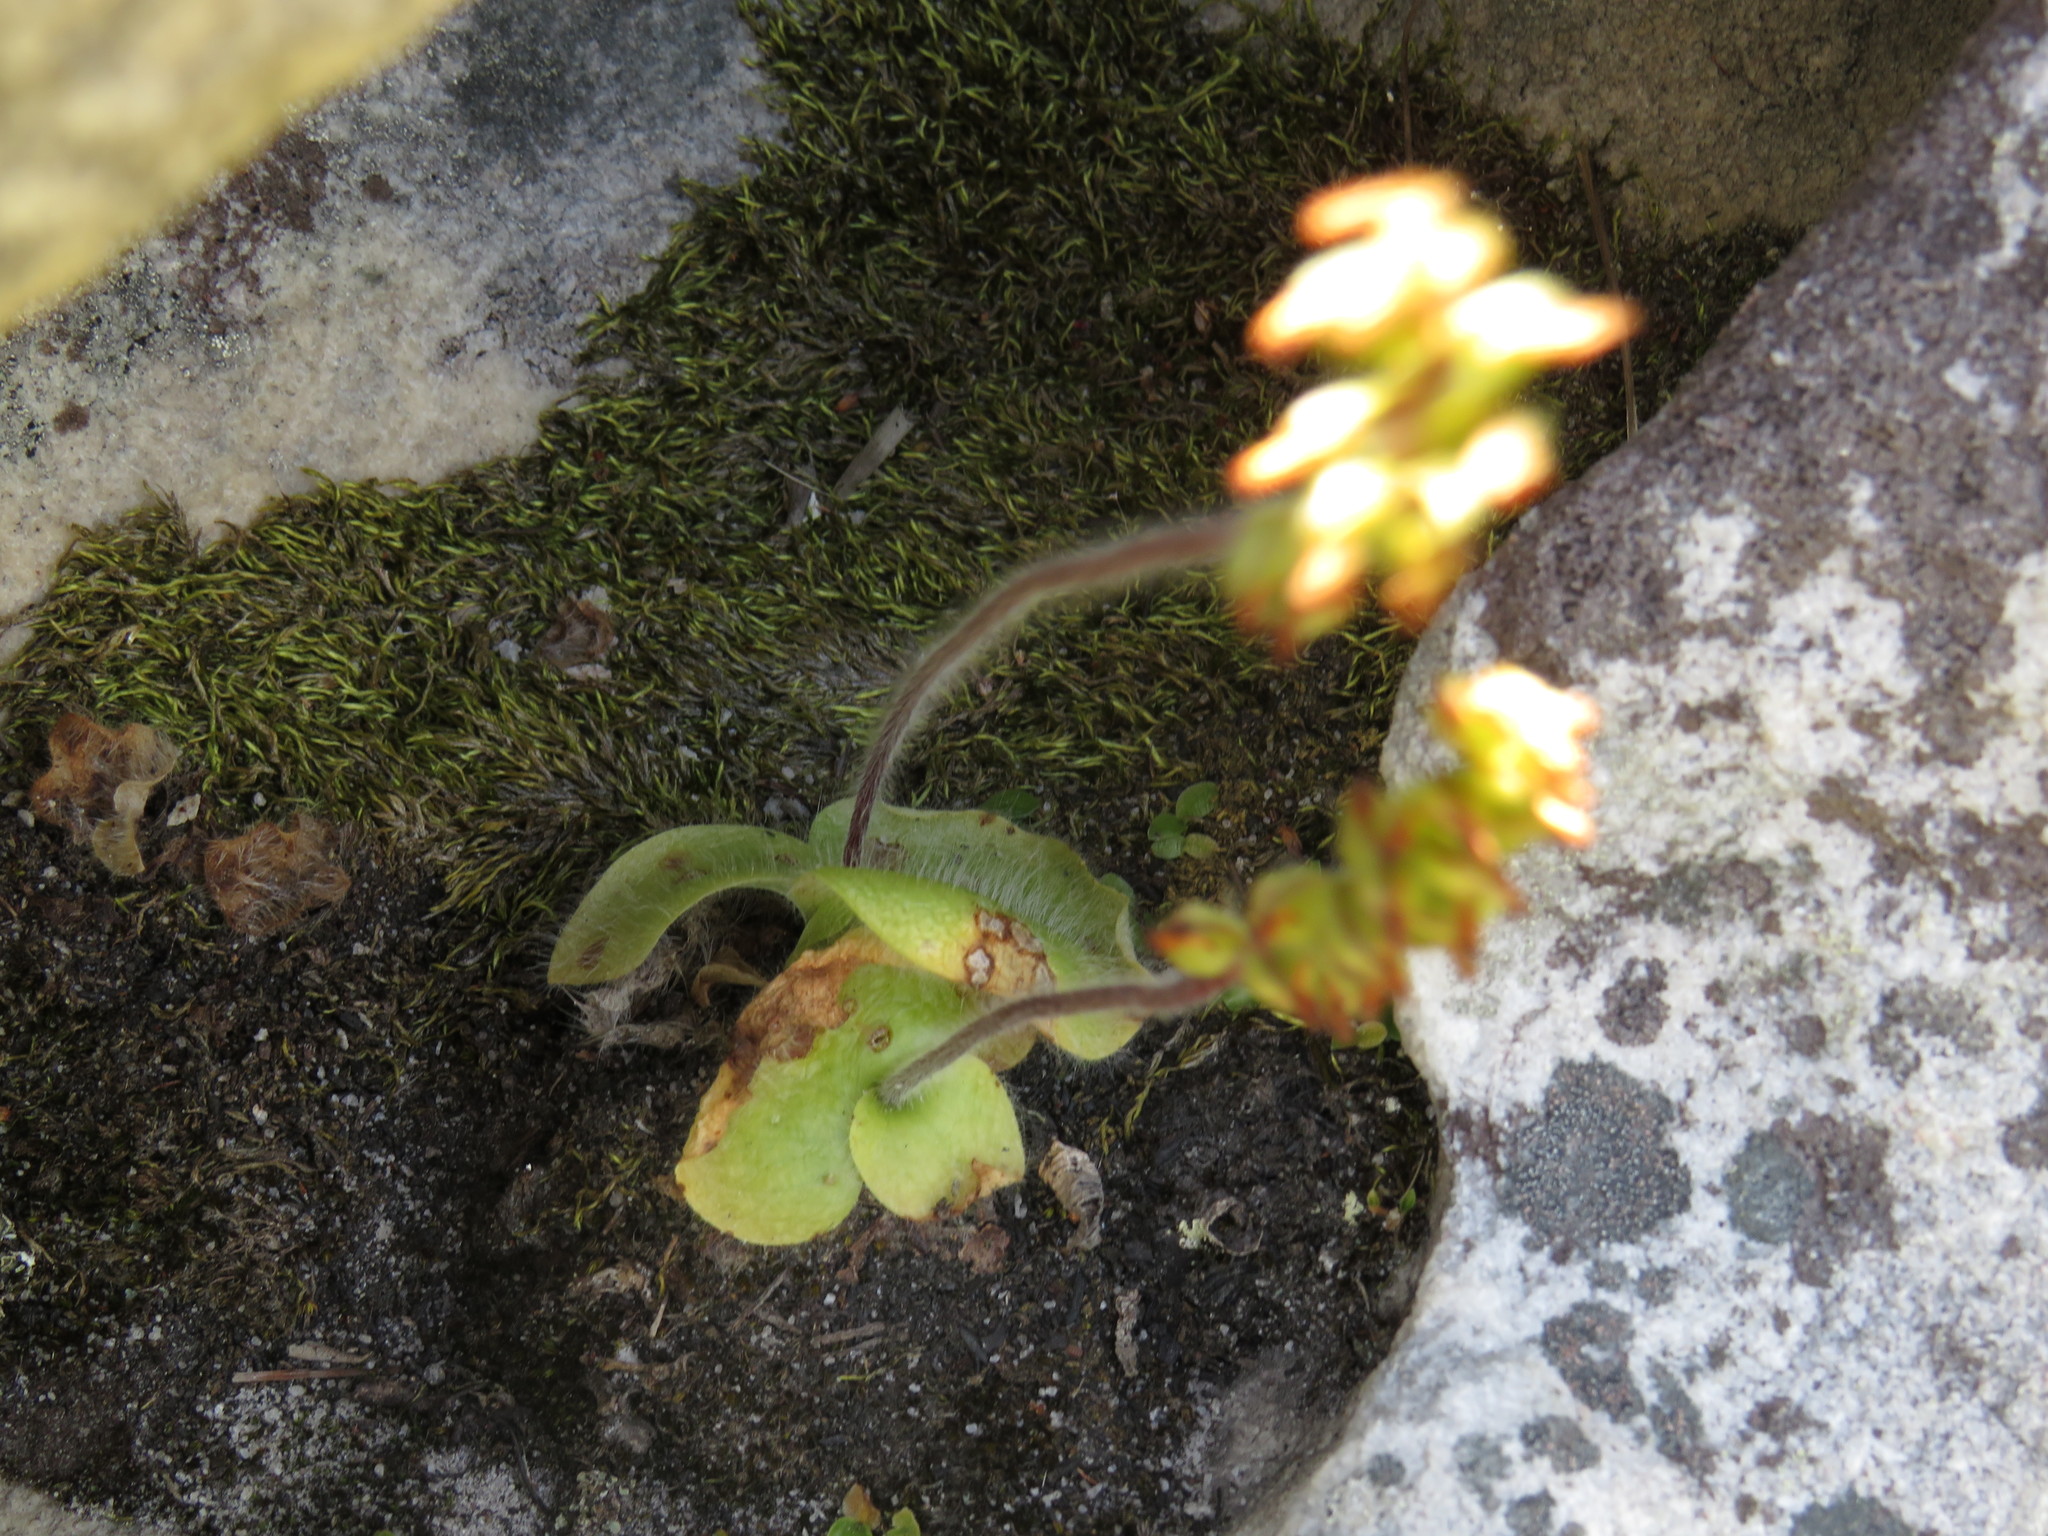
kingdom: Plantae
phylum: Tracheophyta
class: Liliopsida
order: Asparagales
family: Orchidaceae
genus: Holothrix
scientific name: Holothrix villosa
